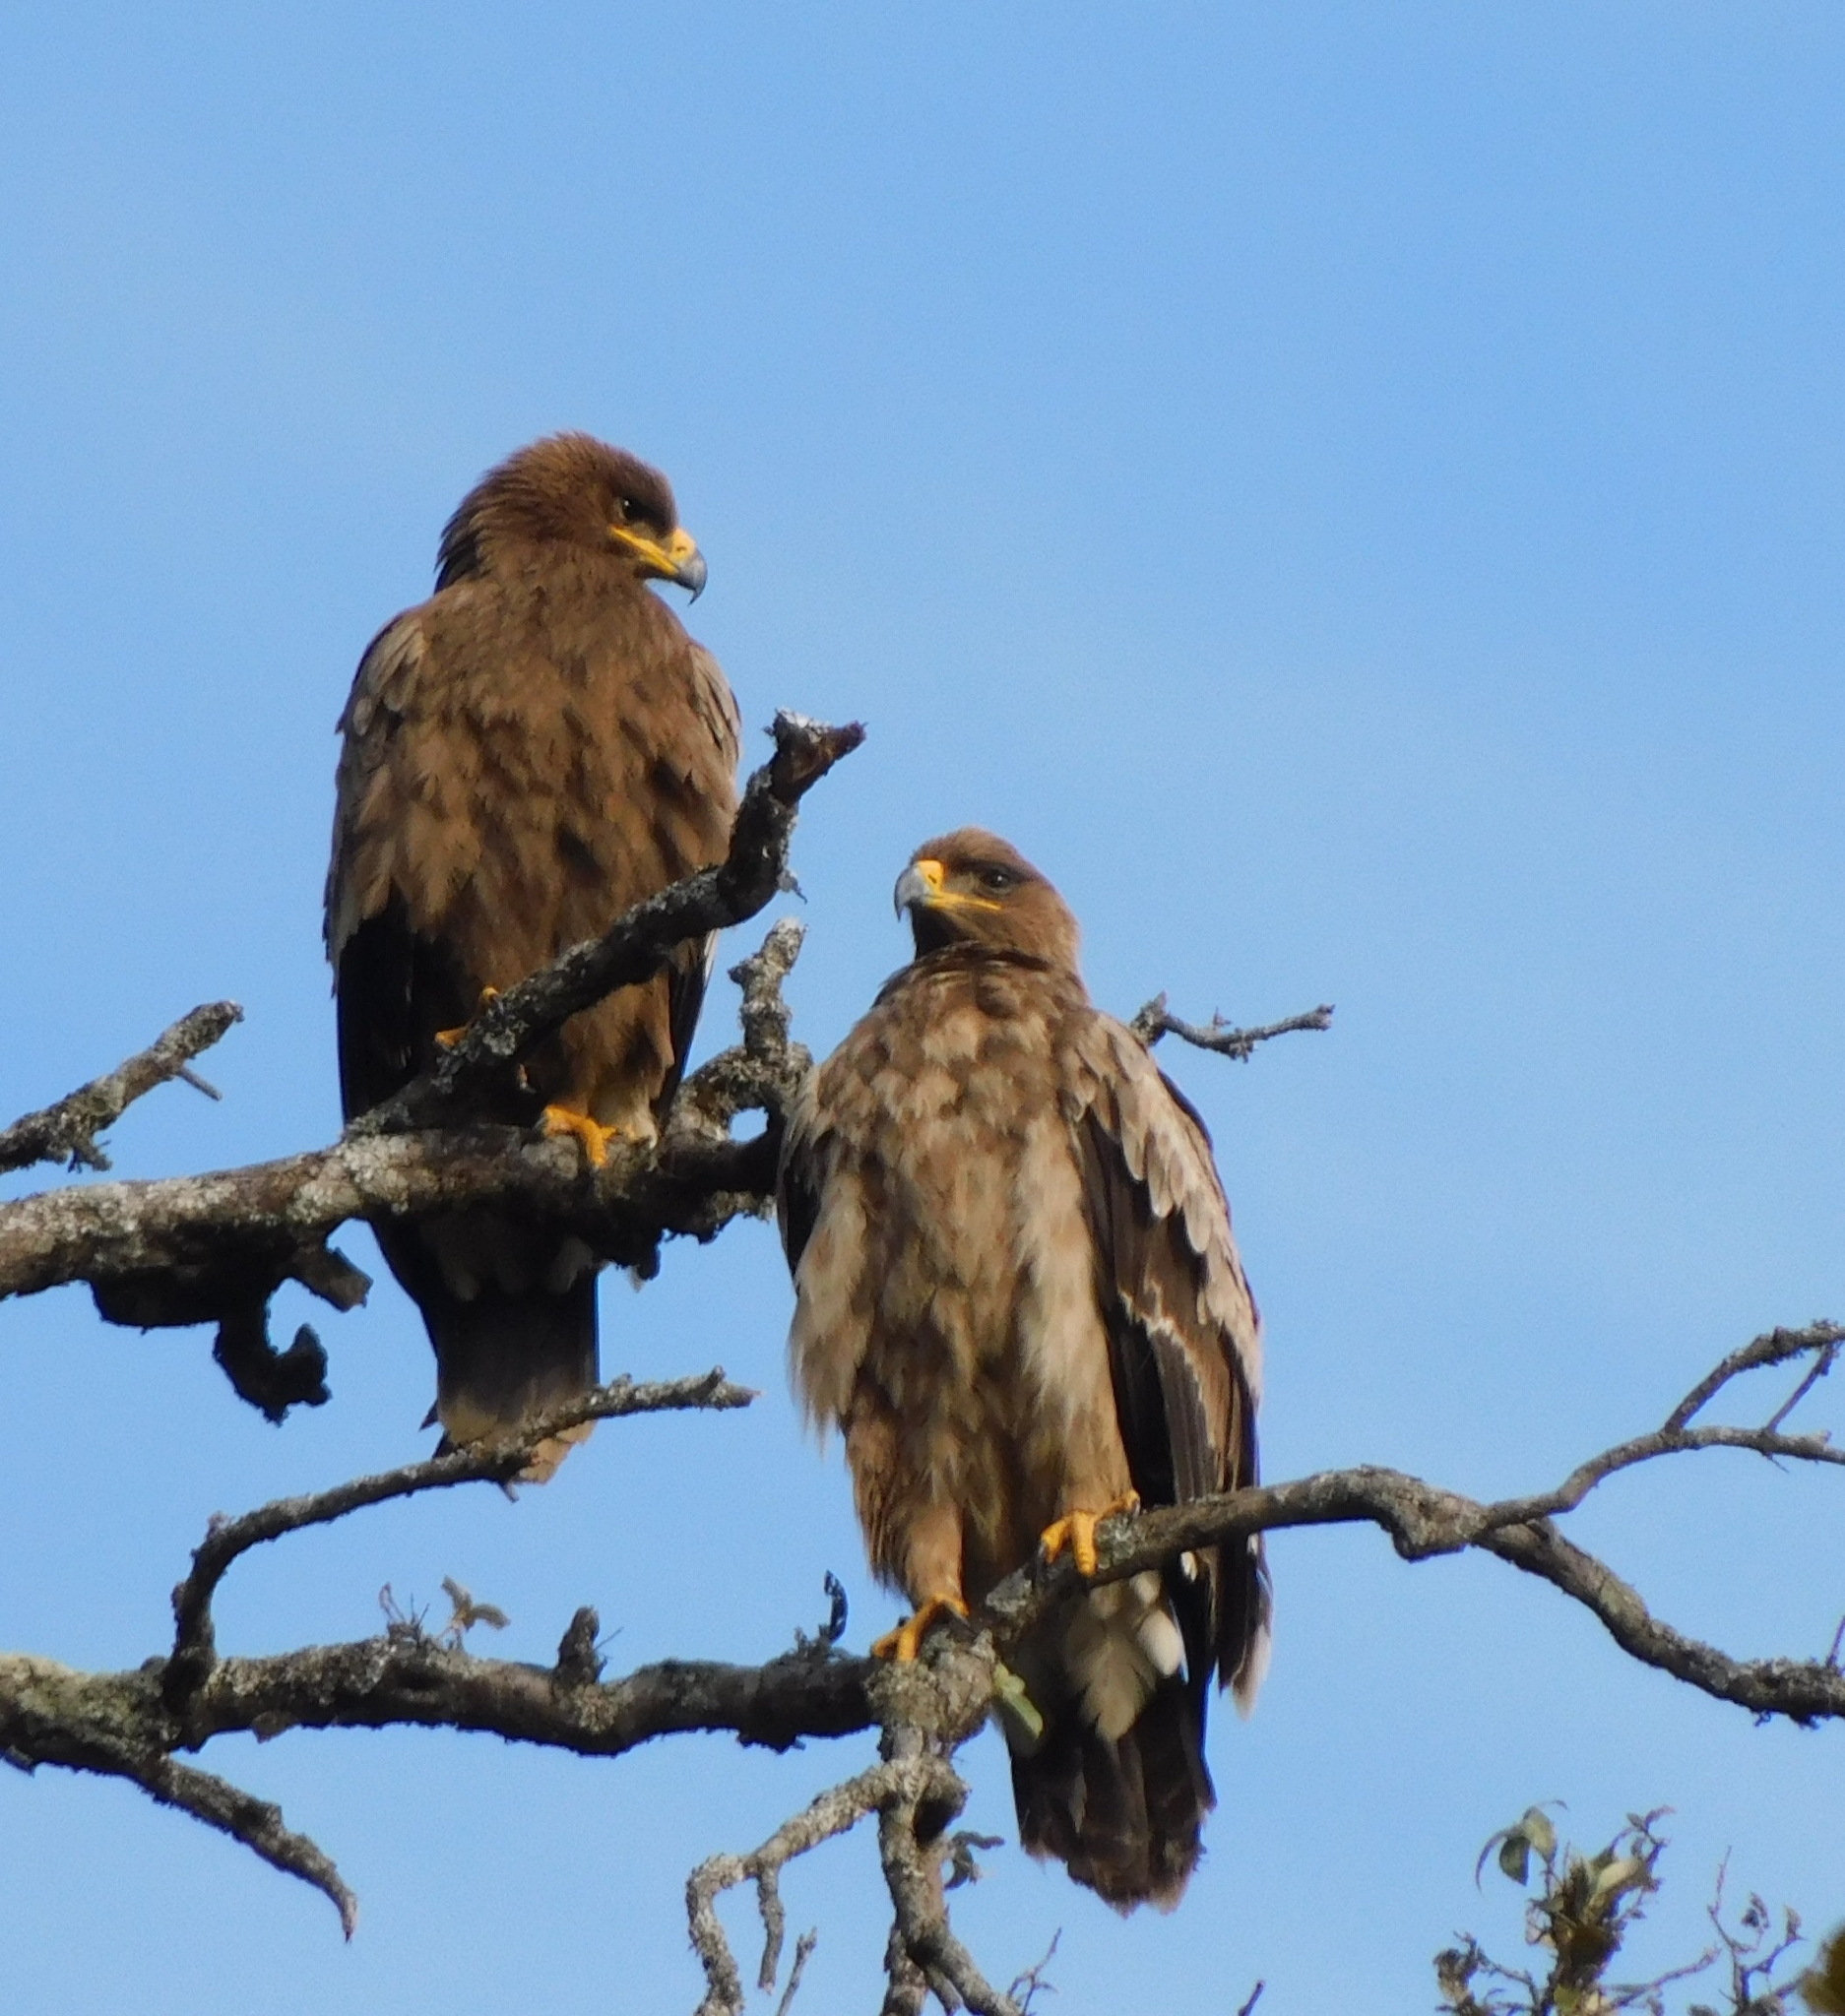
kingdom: Animalia
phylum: Chordata
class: Aves
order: Accipitriformes
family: Accipitridae
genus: Aquila
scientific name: Aquila nipalensis
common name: Steppe eagle
